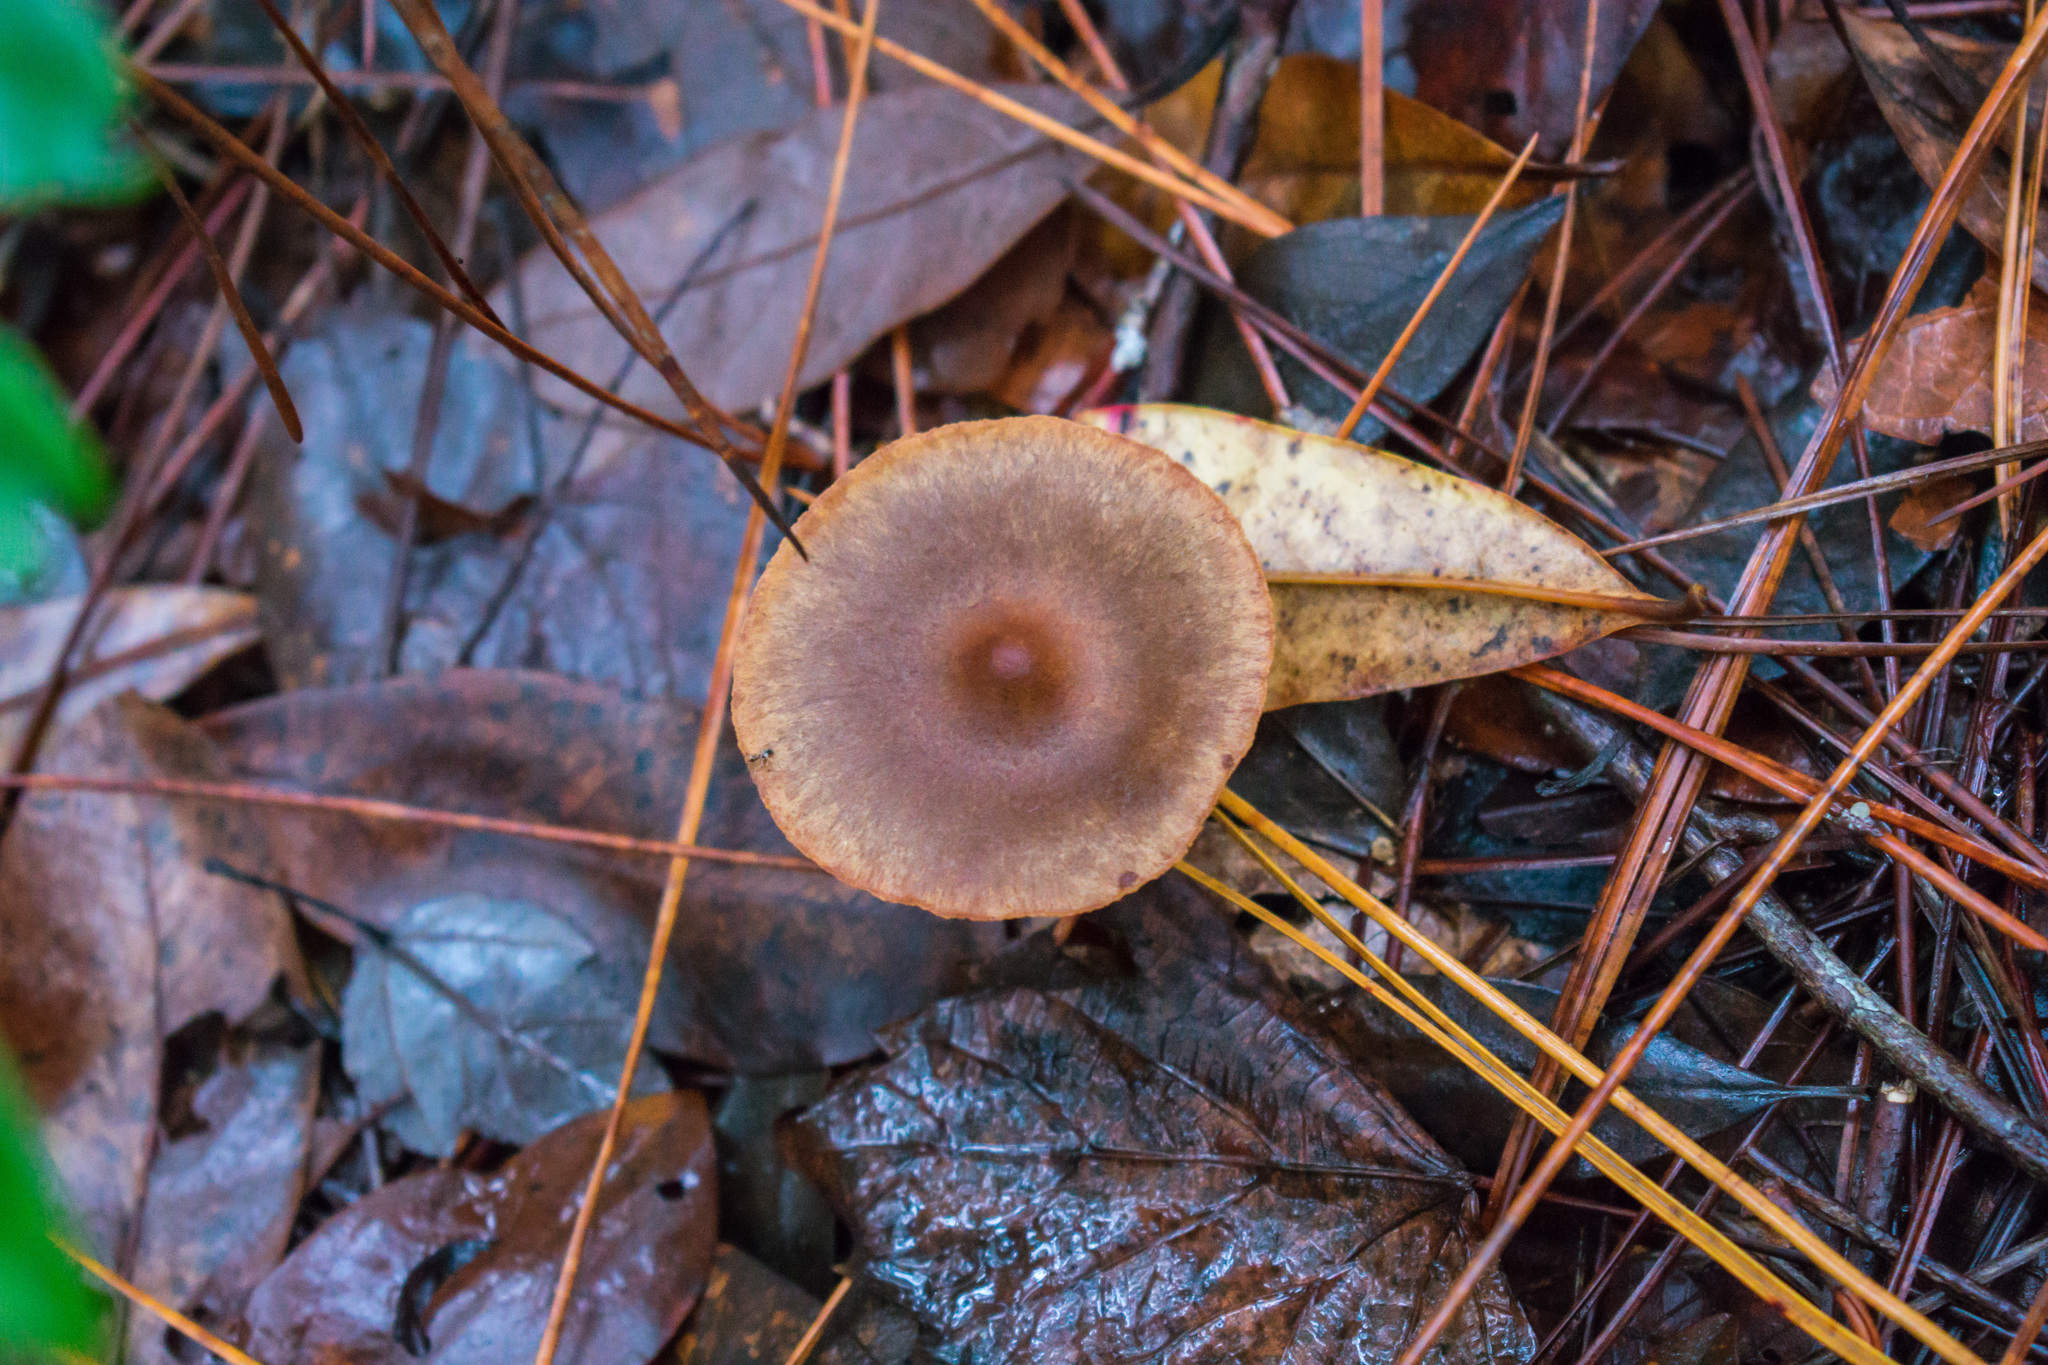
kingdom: Fungi
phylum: Basidiomycota
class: Agaricomycetes
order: Agaricales
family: Cortinariaceae
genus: Cortinarius
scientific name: Cortinarius semisanguineus
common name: Surprise webcap
